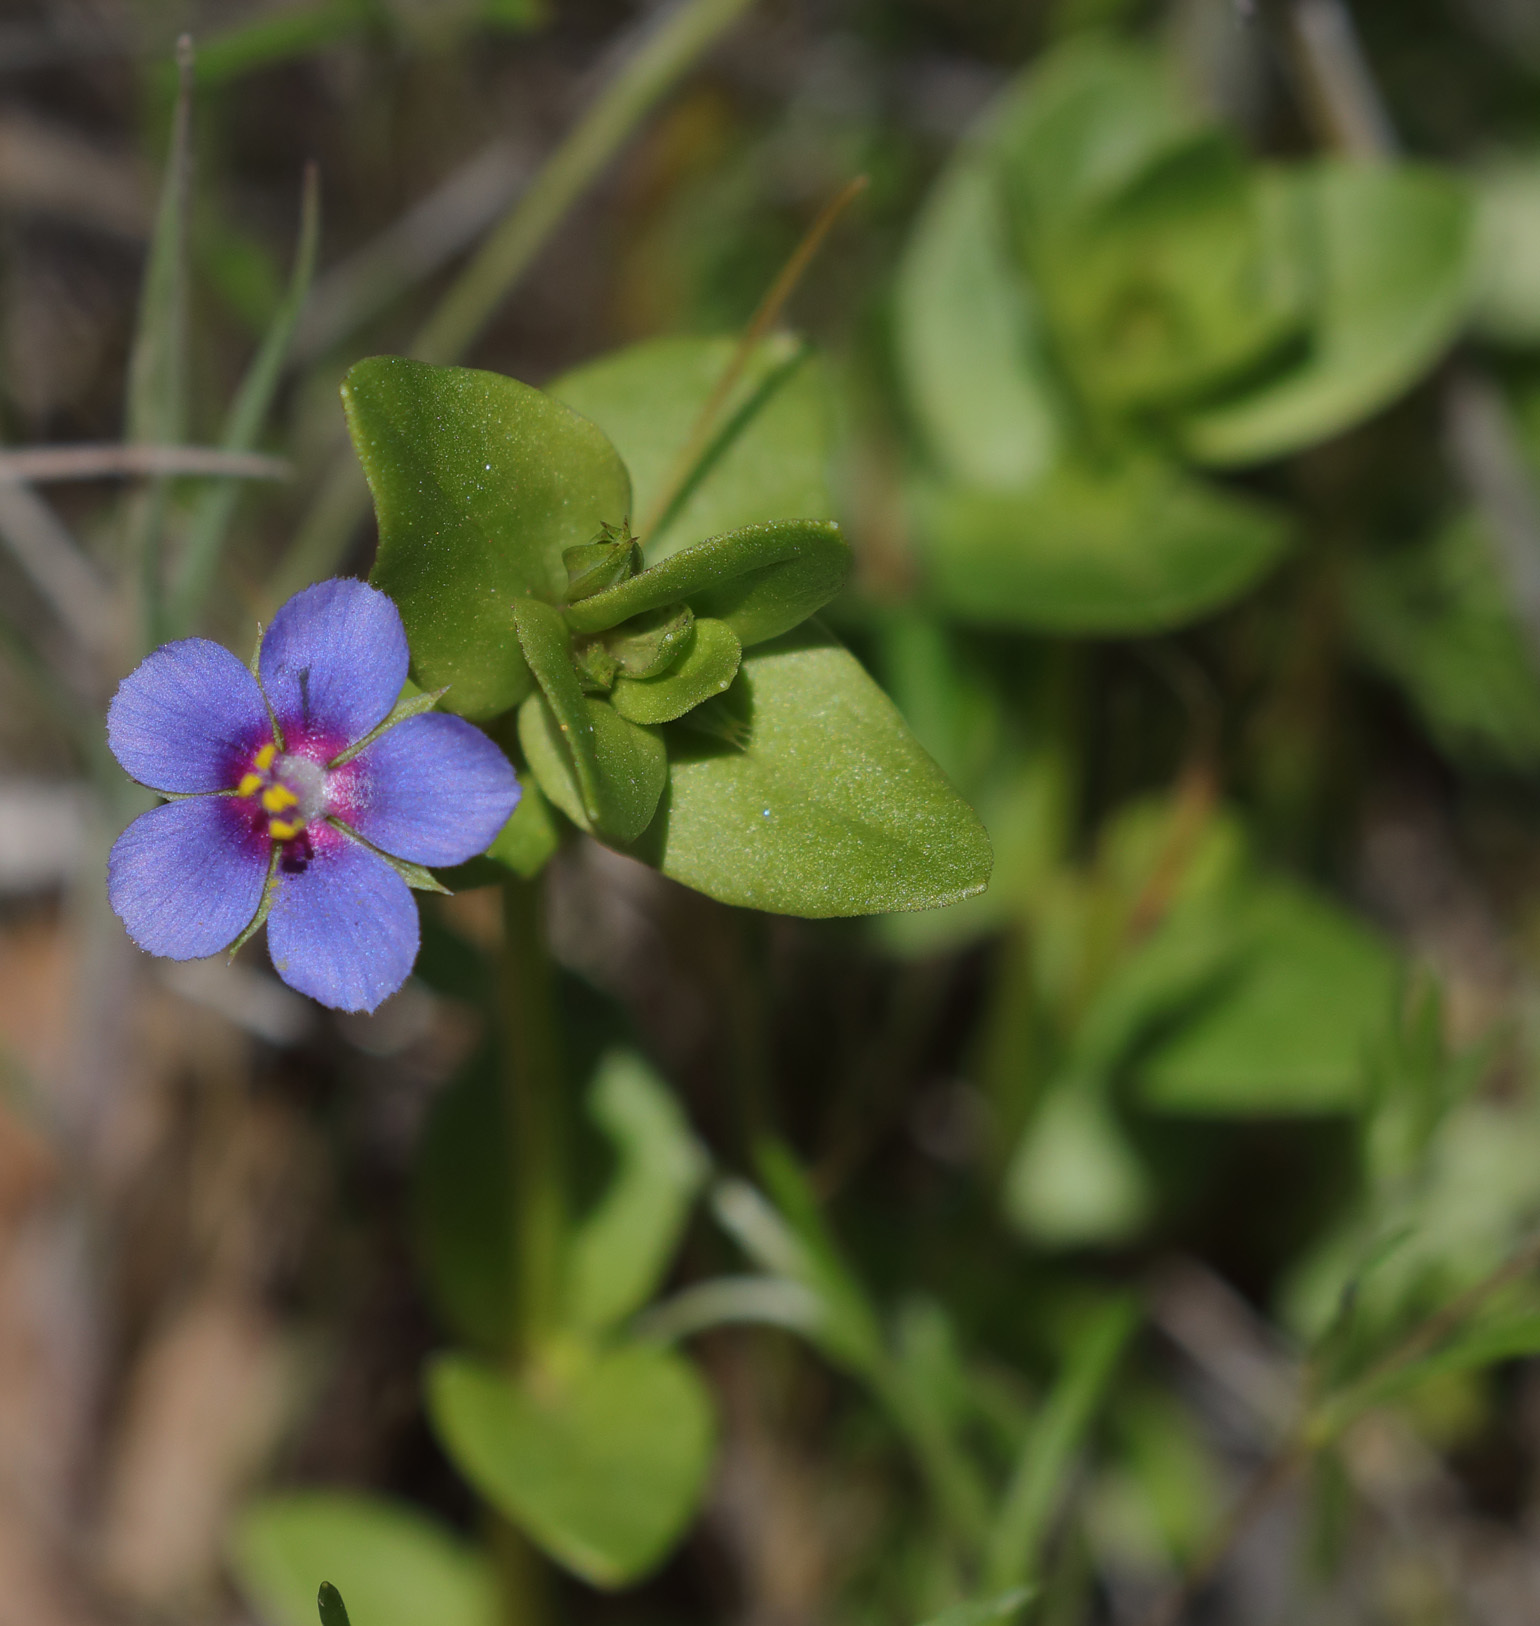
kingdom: Plantae
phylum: Tracheophyta
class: Magnoliopsida
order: Ericales
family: Primulaceae
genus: Lysimachia
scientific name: Lysimachia arvensis
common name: Scarlet pimpernel
